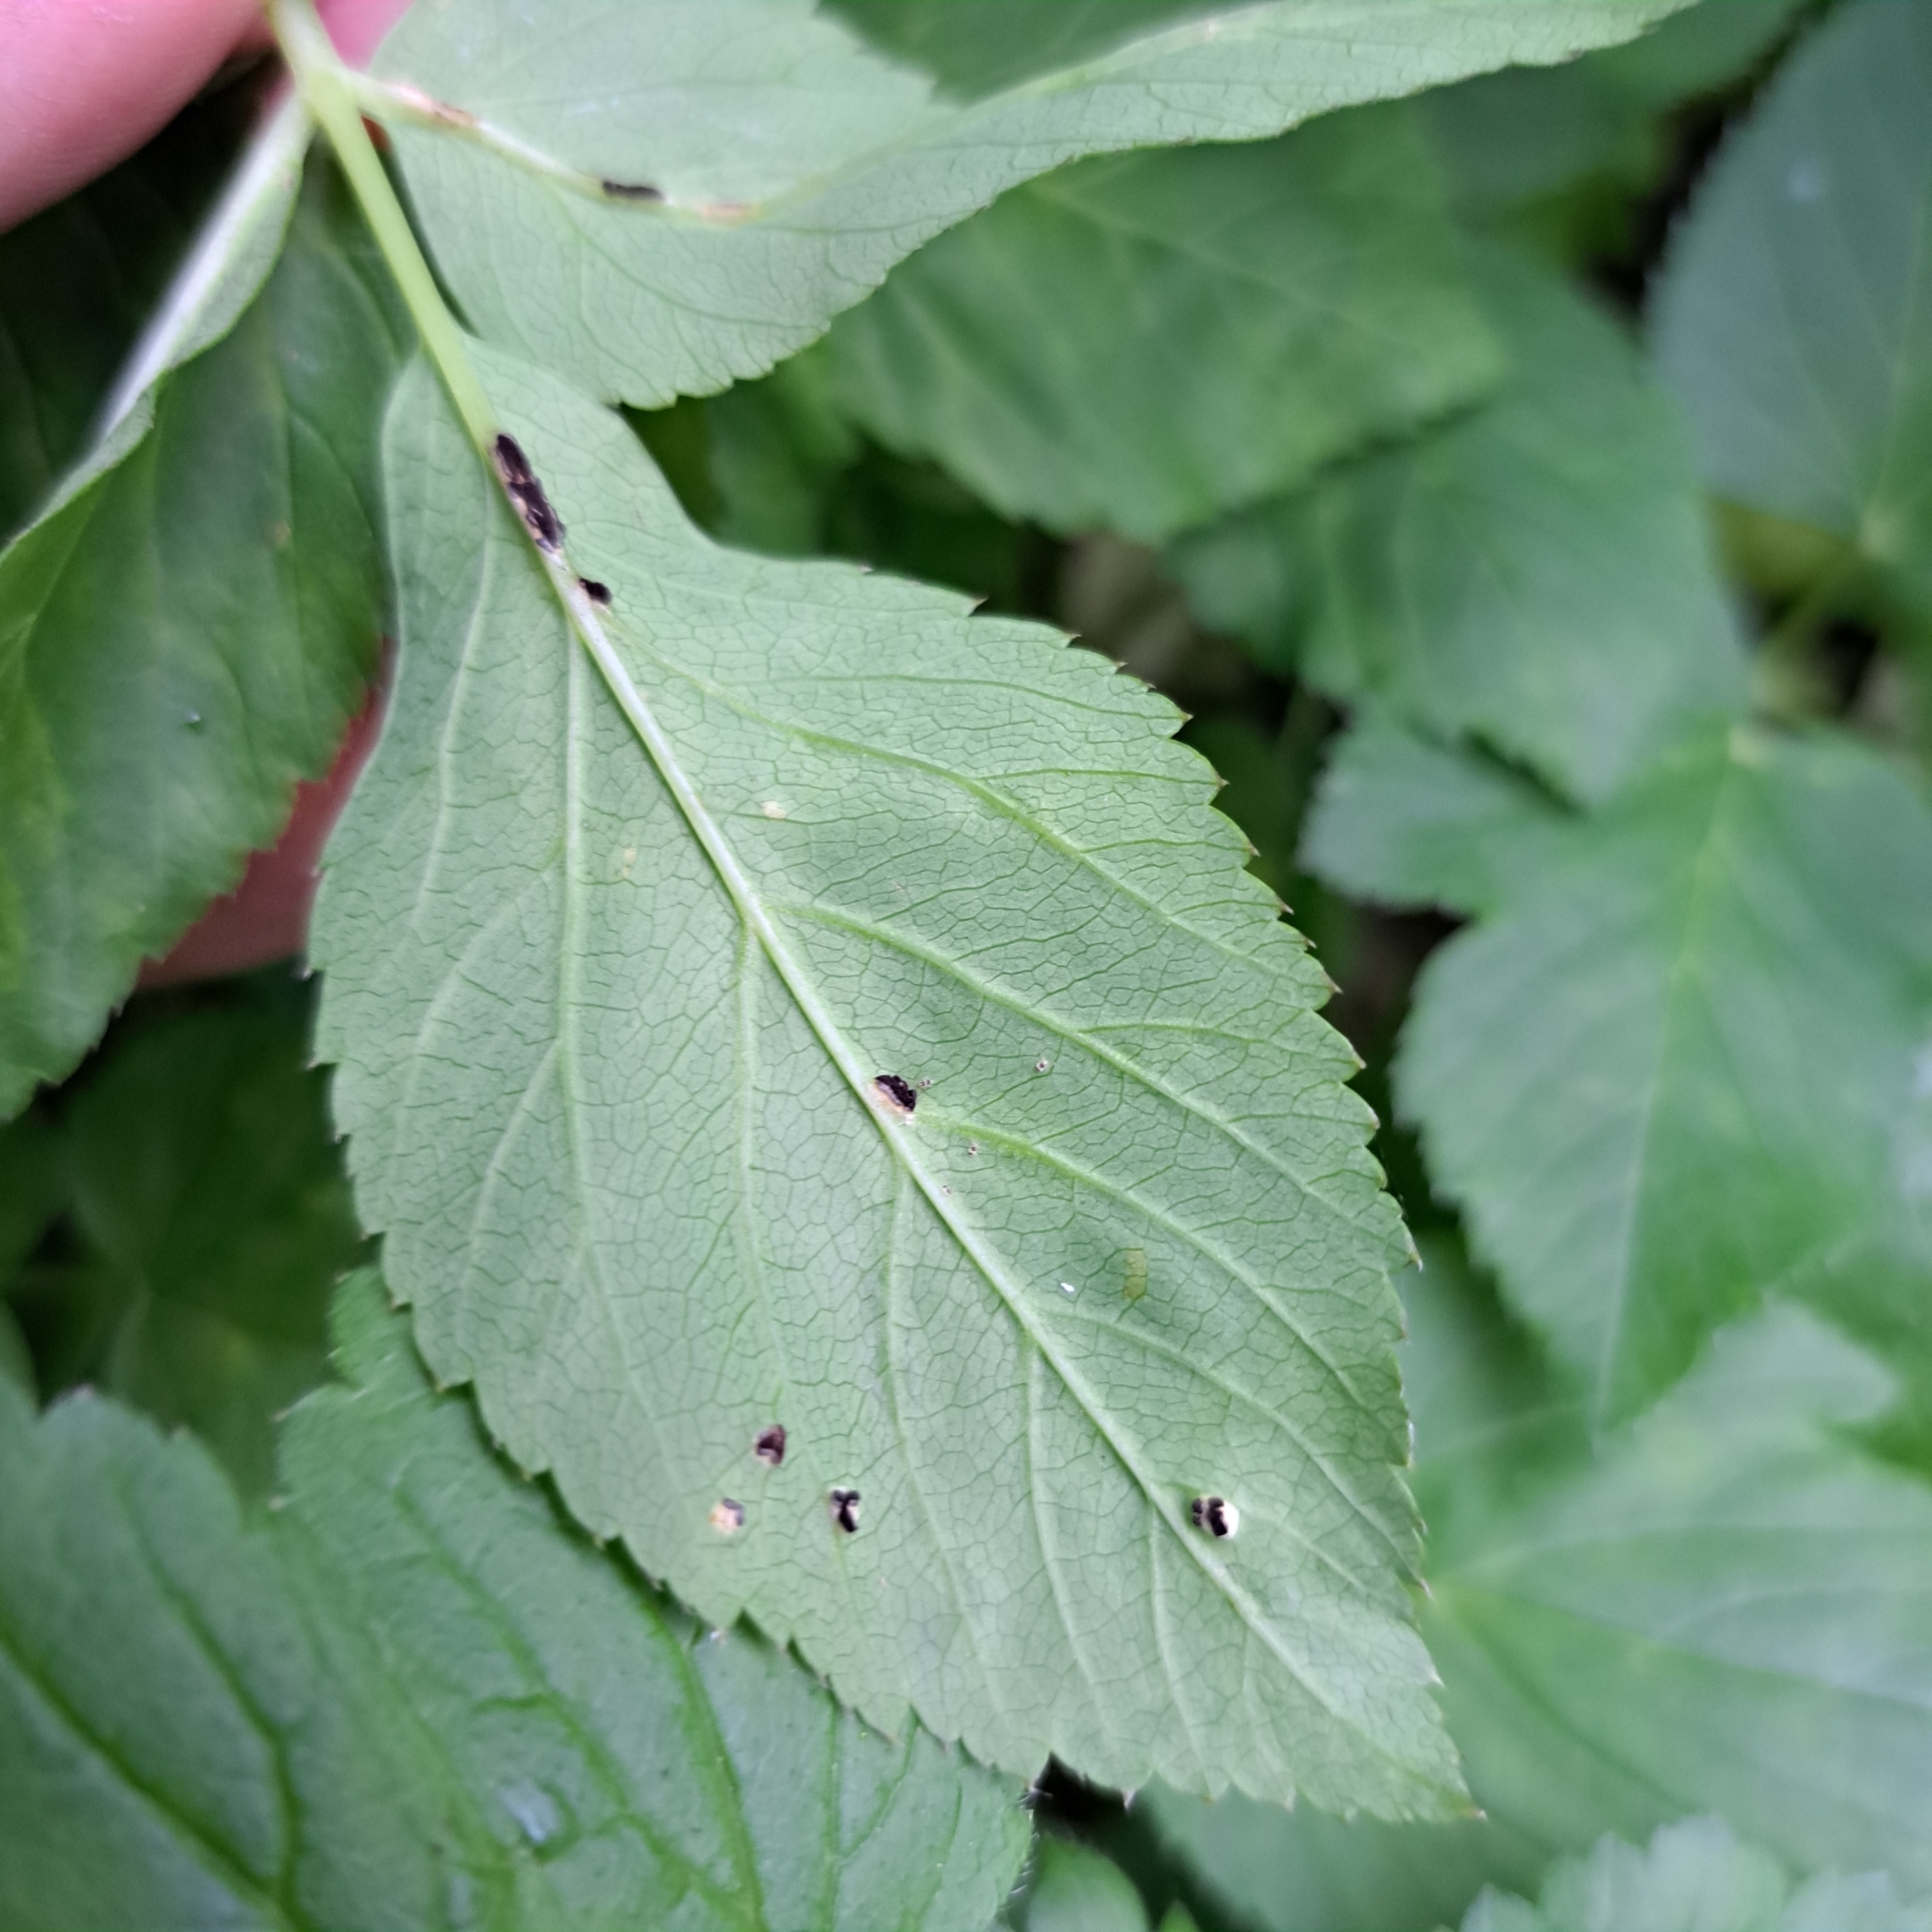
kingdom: Fungi
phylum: Basidiomycota
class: Pucciniomycetes
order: Pucciniales
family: Pucciniaceae
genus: Puccinia
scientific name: Puccinia aegopodii
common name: Ground elder rust
